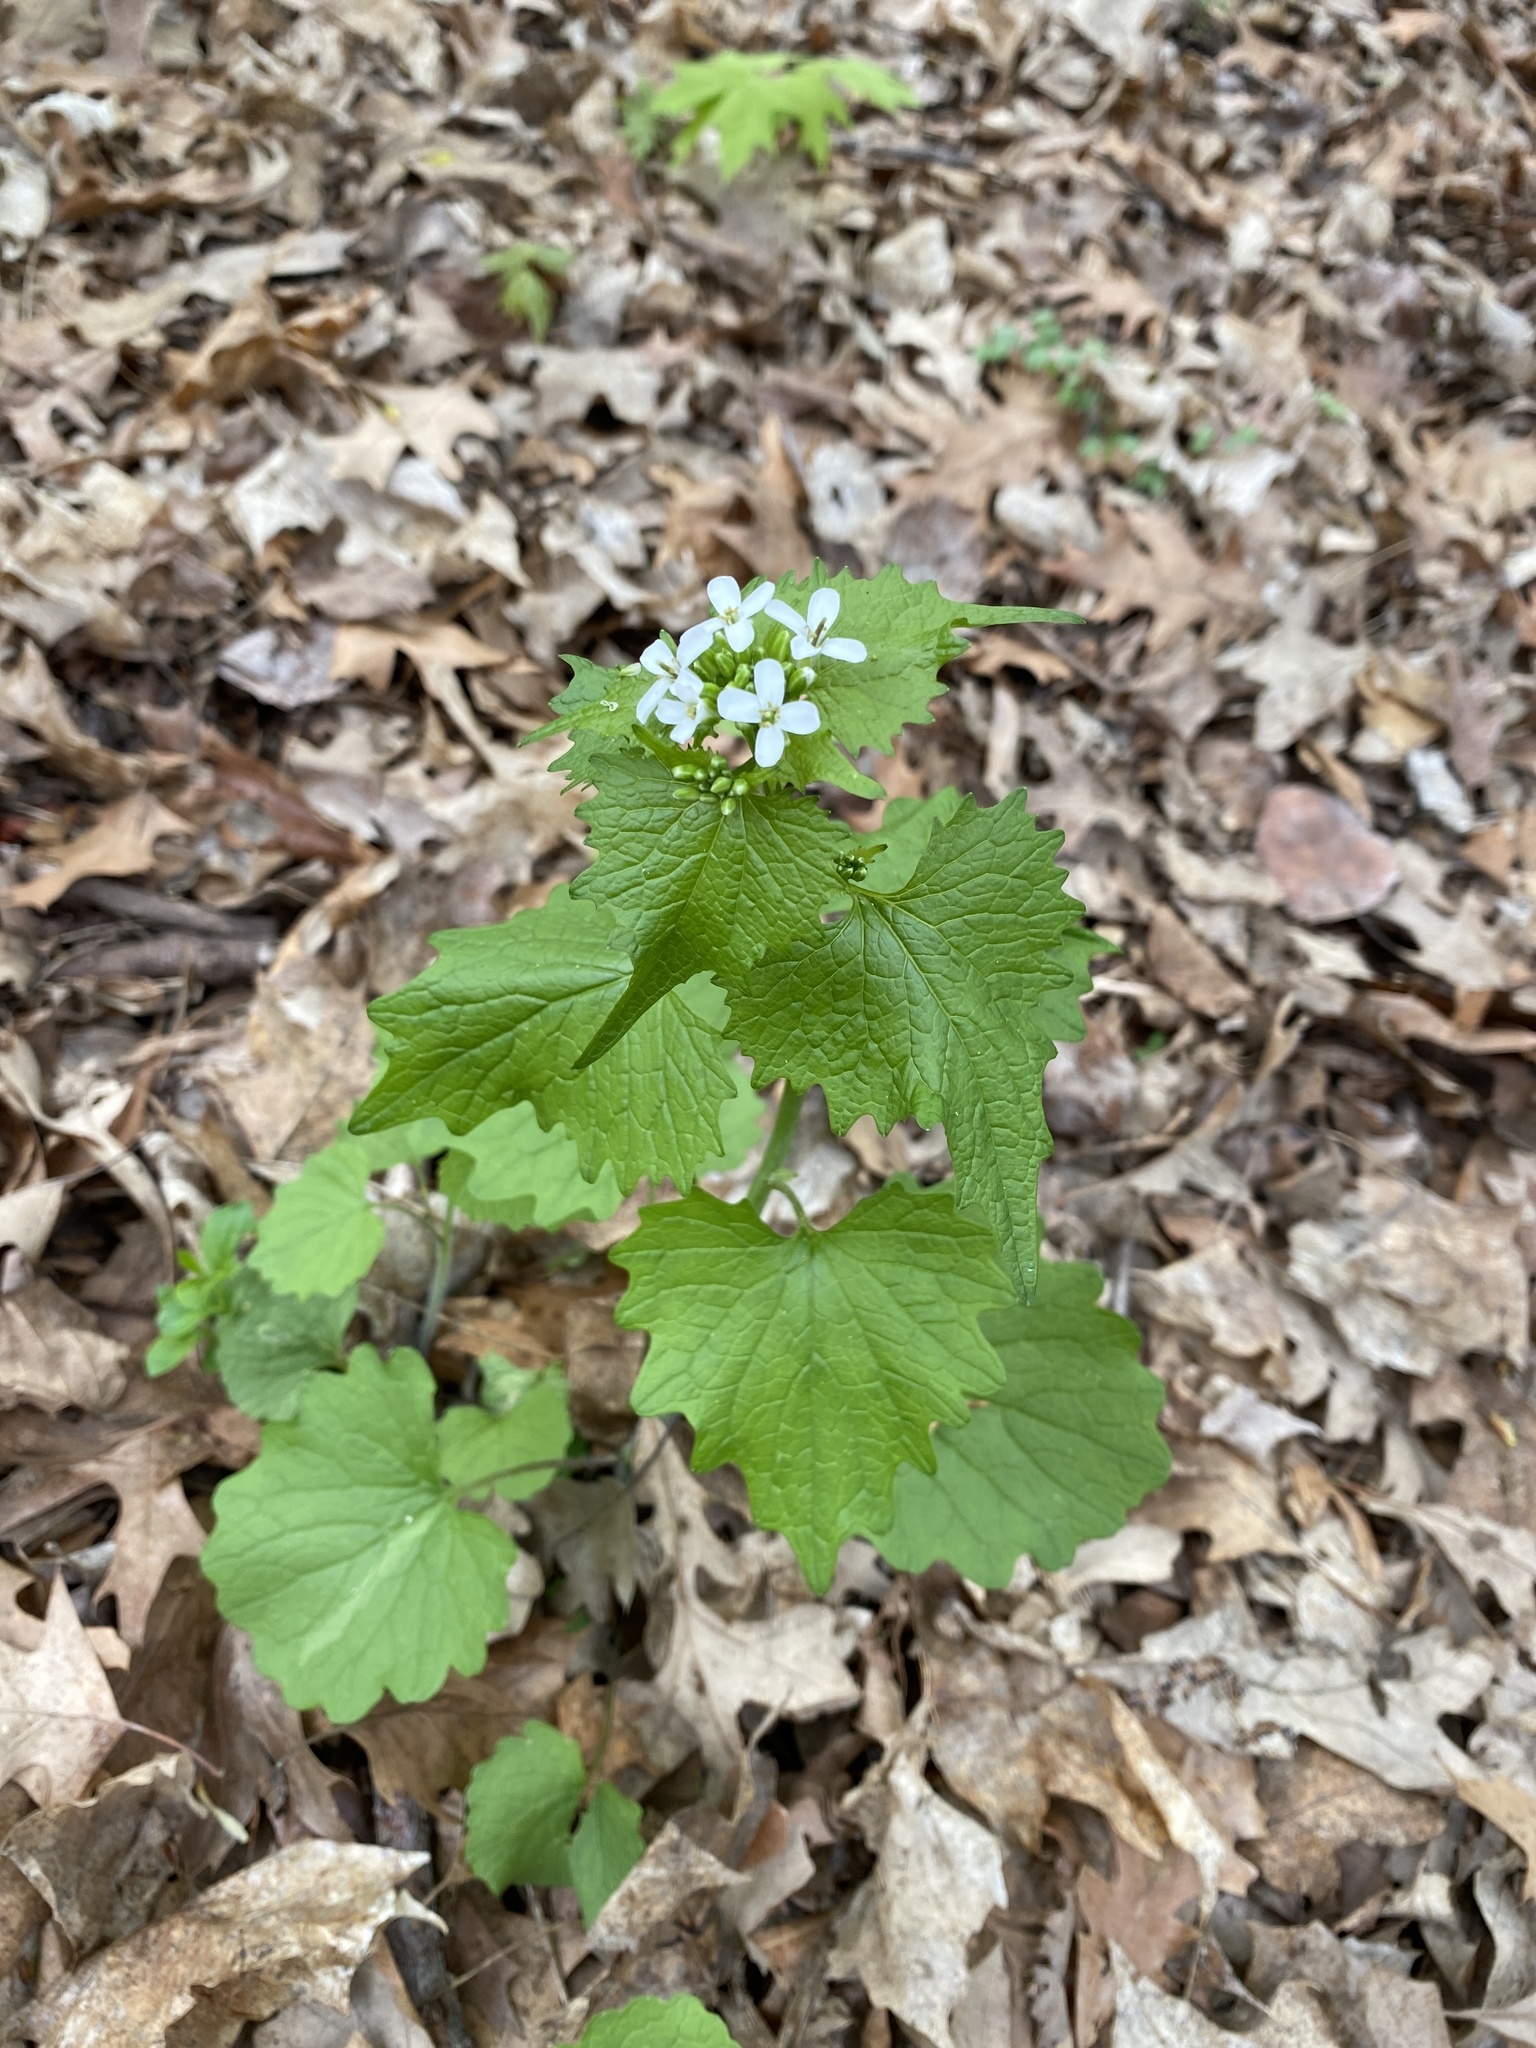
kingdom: Plantae
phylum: Tracheophyta
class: Magnoliopsida
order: Brassicales
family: Brassicaceae
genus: Alliaria
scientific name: Alliaria petiolata
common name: Garlic mustard
